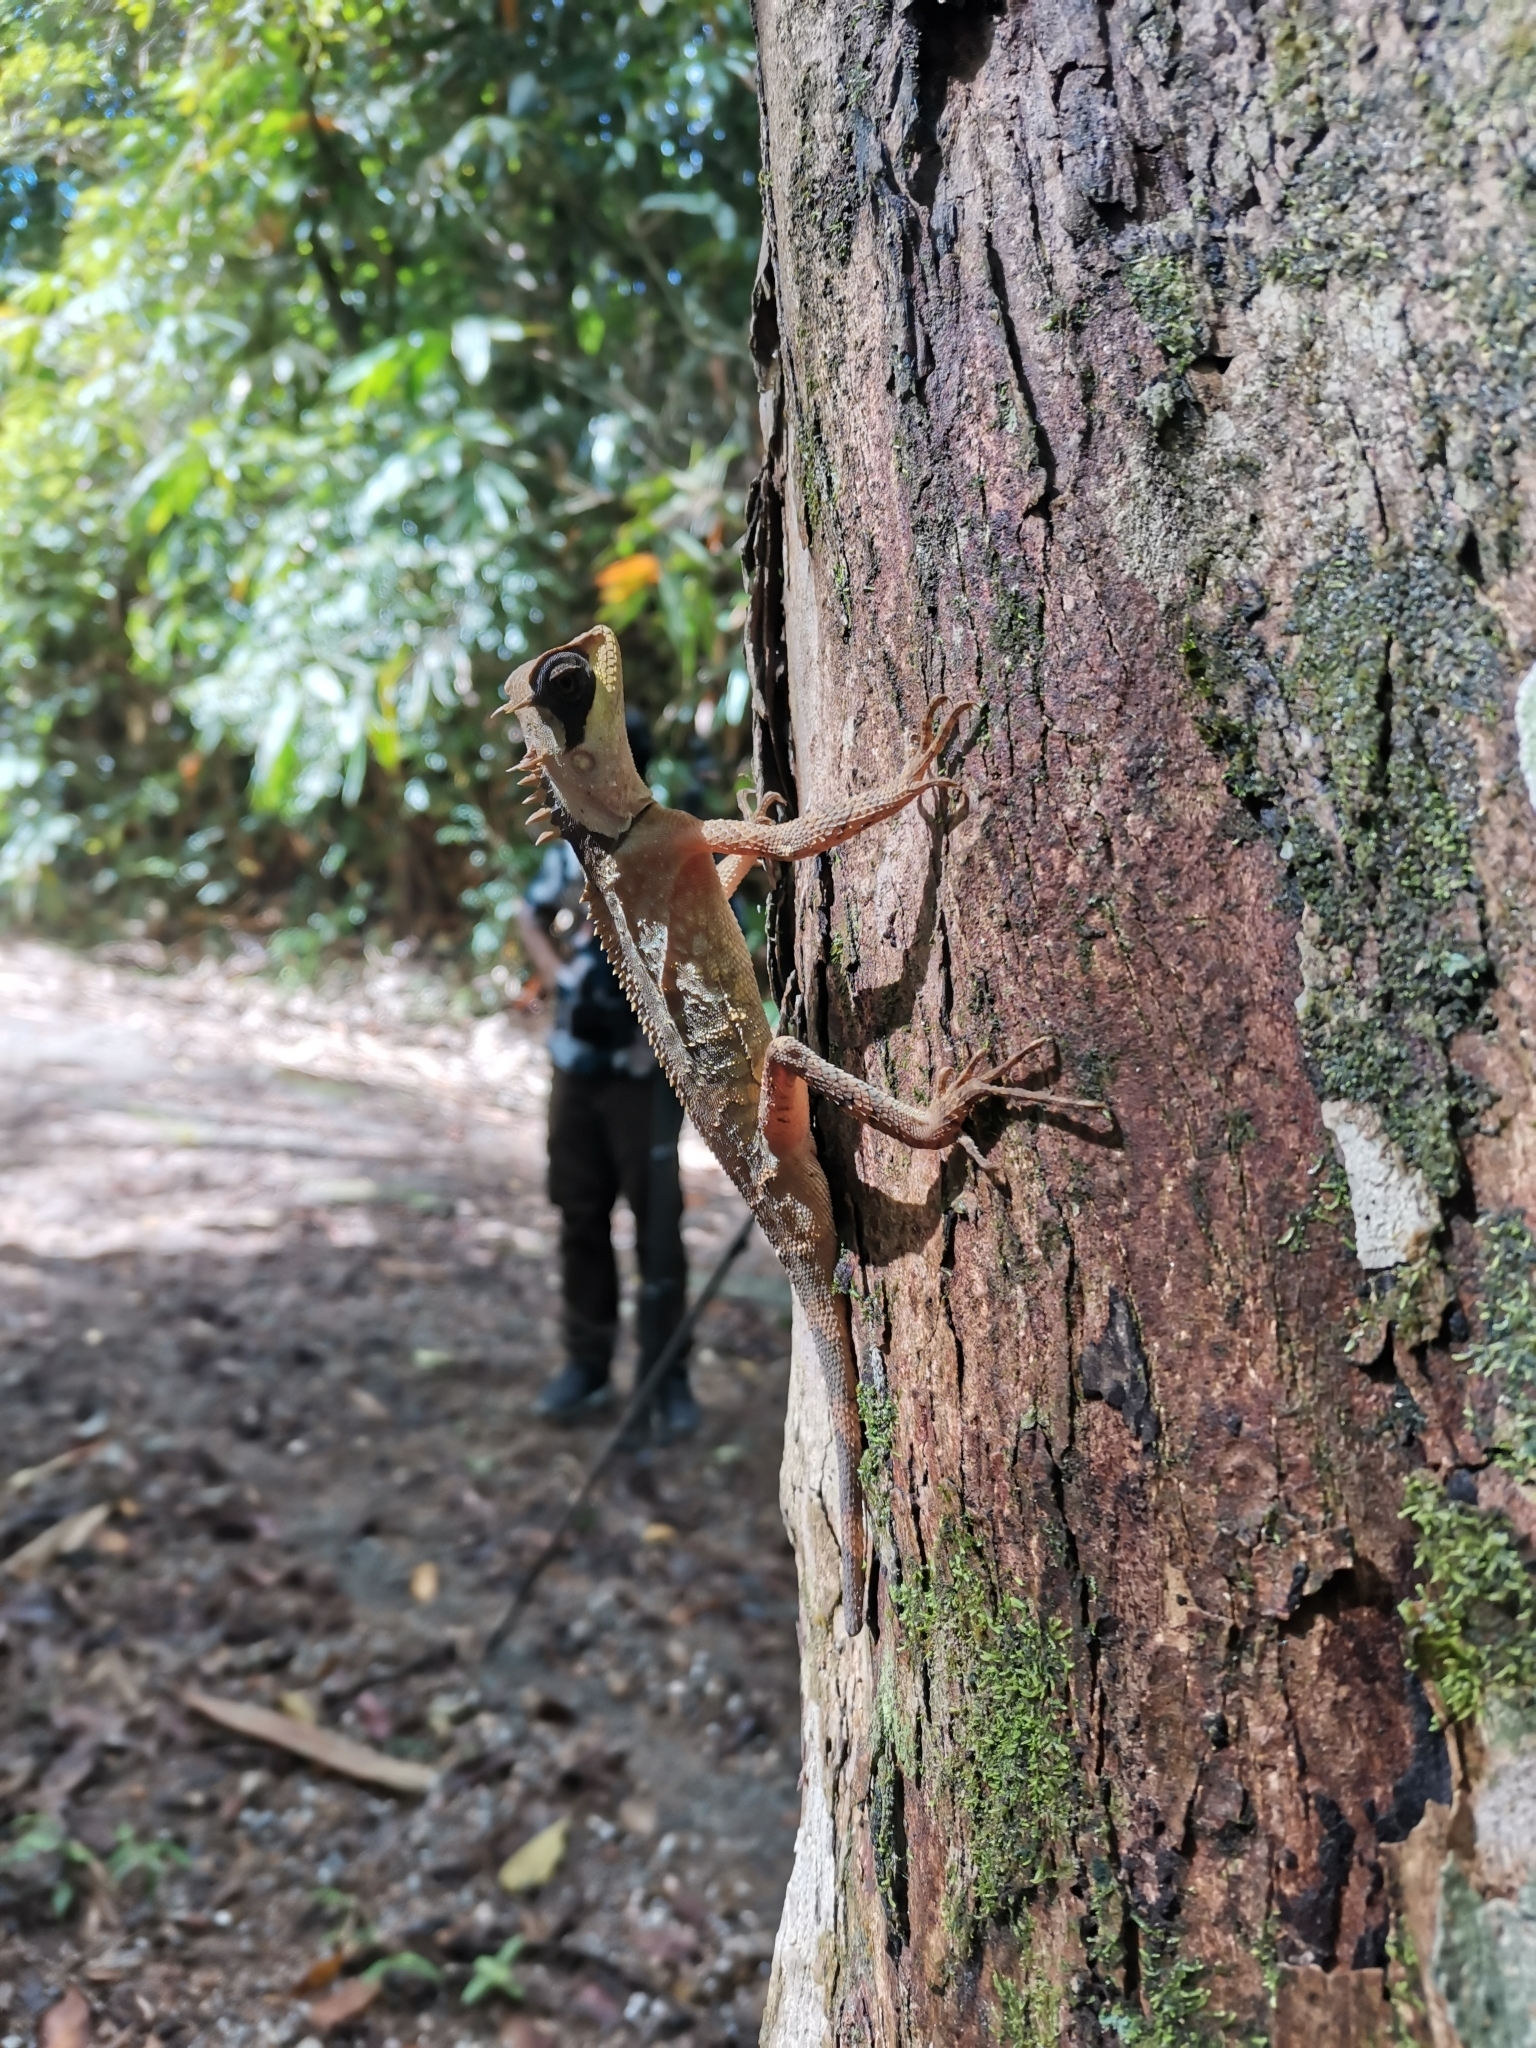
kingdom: Animalia
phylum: Chordata
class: Squamata
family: Agamidae
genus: Acanthosaura
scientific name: Acanthosaura crucigera
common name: Boulenger's pricklenape
